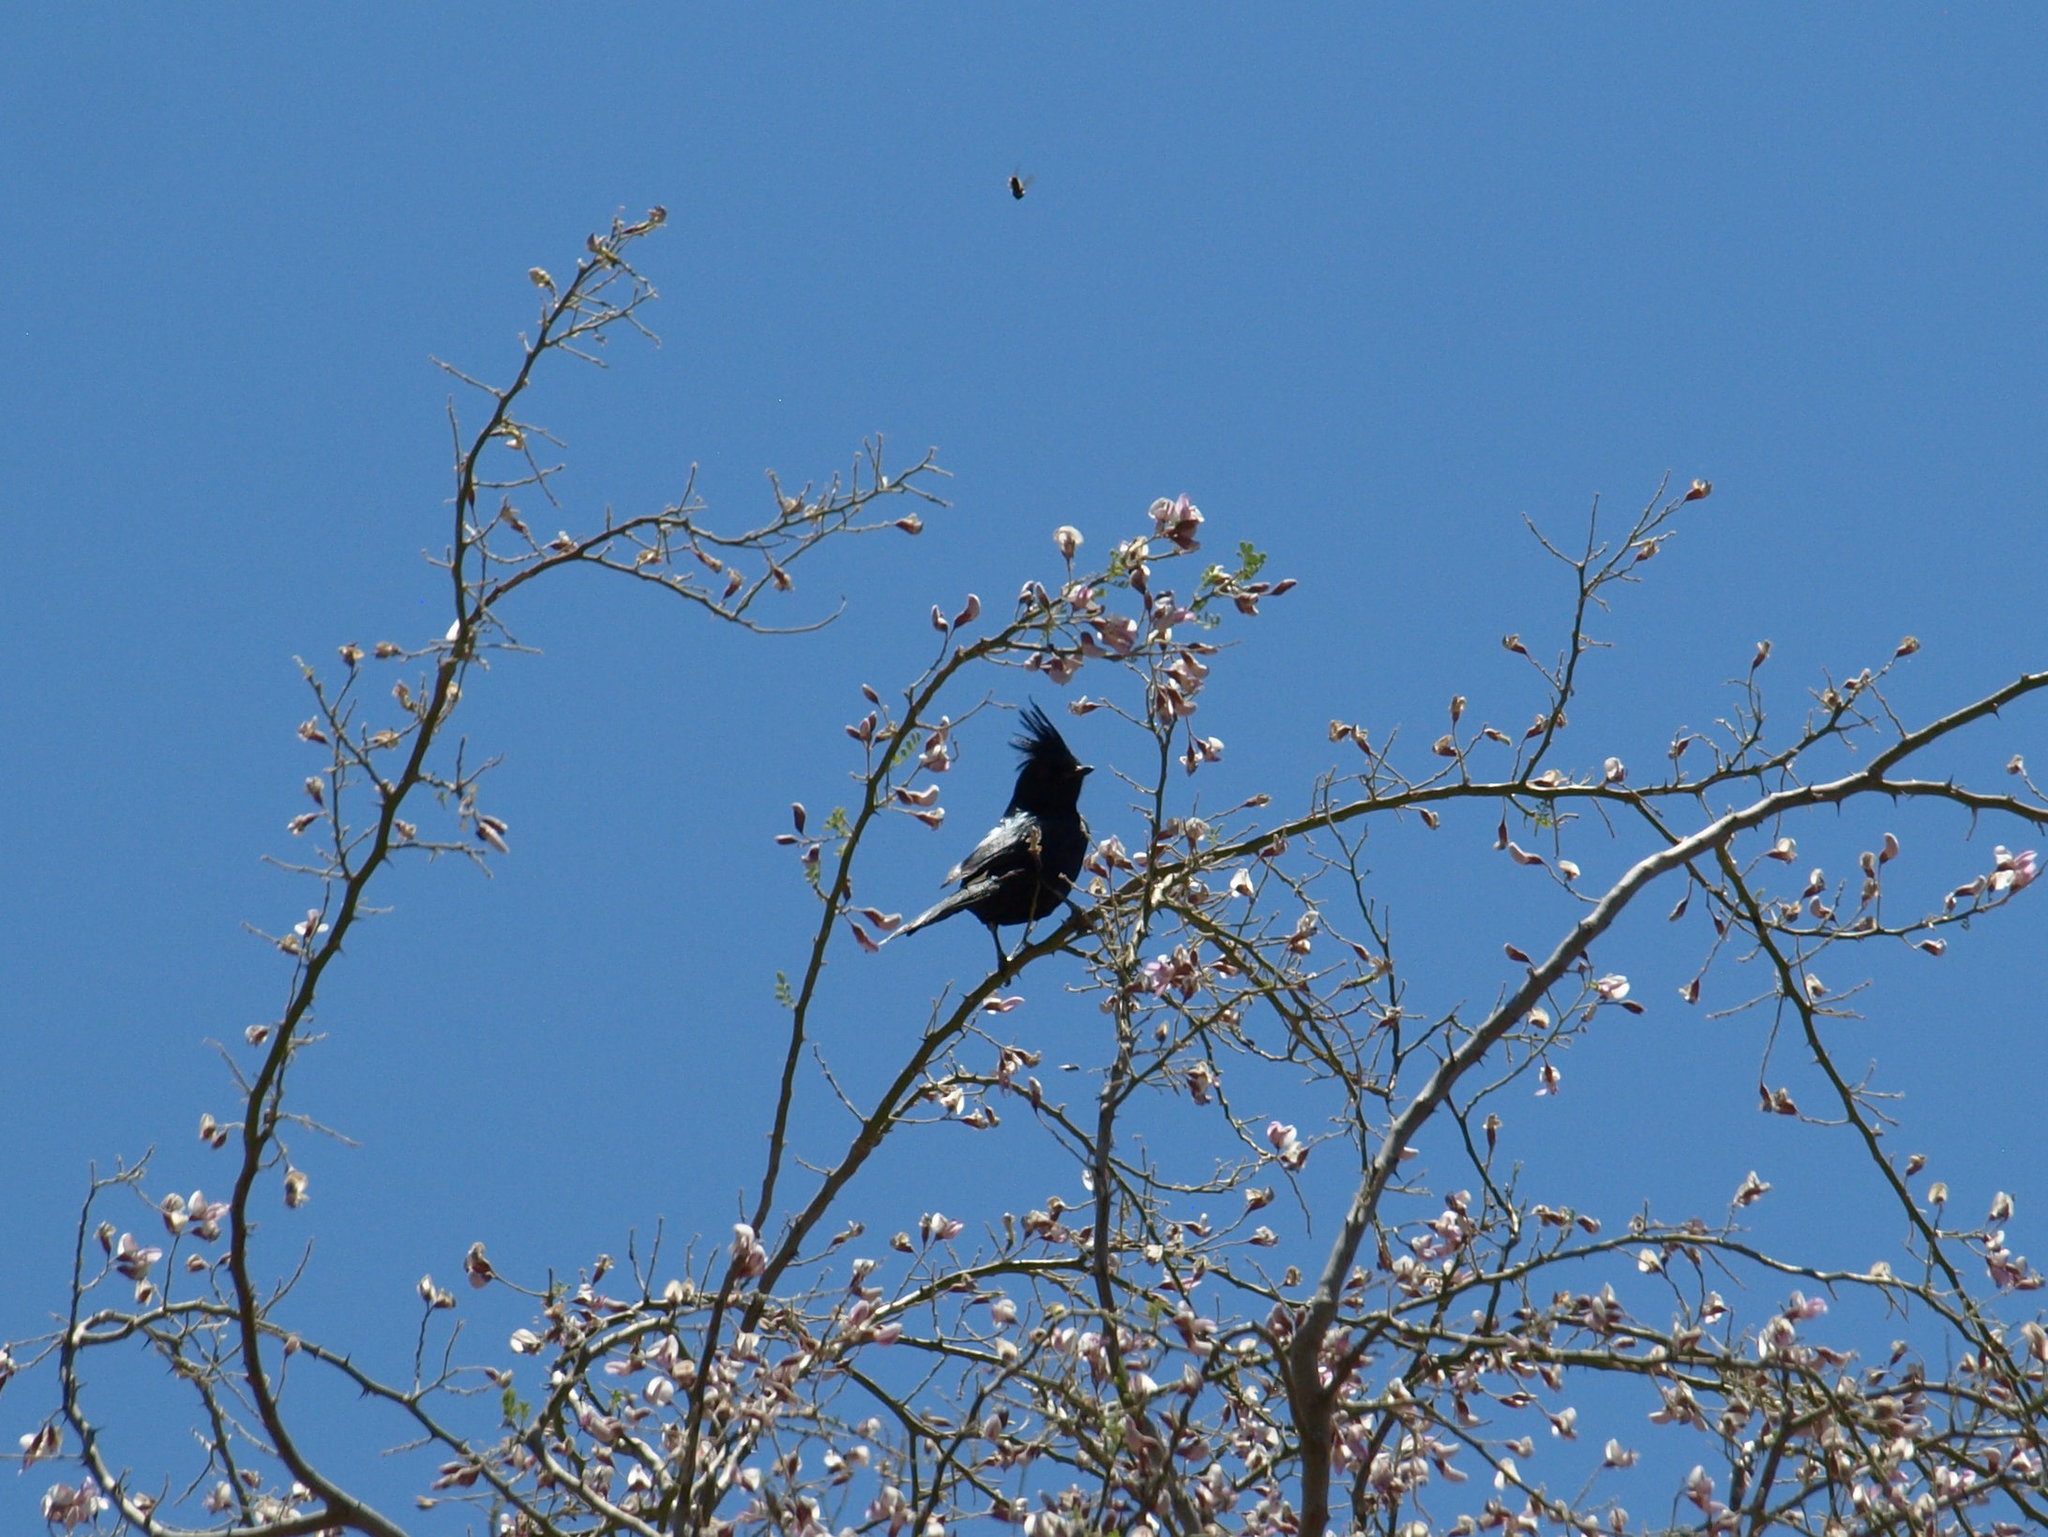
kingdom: Animalia
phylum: Chordata
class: Aves
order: Passeriformes
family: Ptilogonatidae
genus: Phainopepla
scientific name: Phainopepla nitens
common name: Phainopepla
